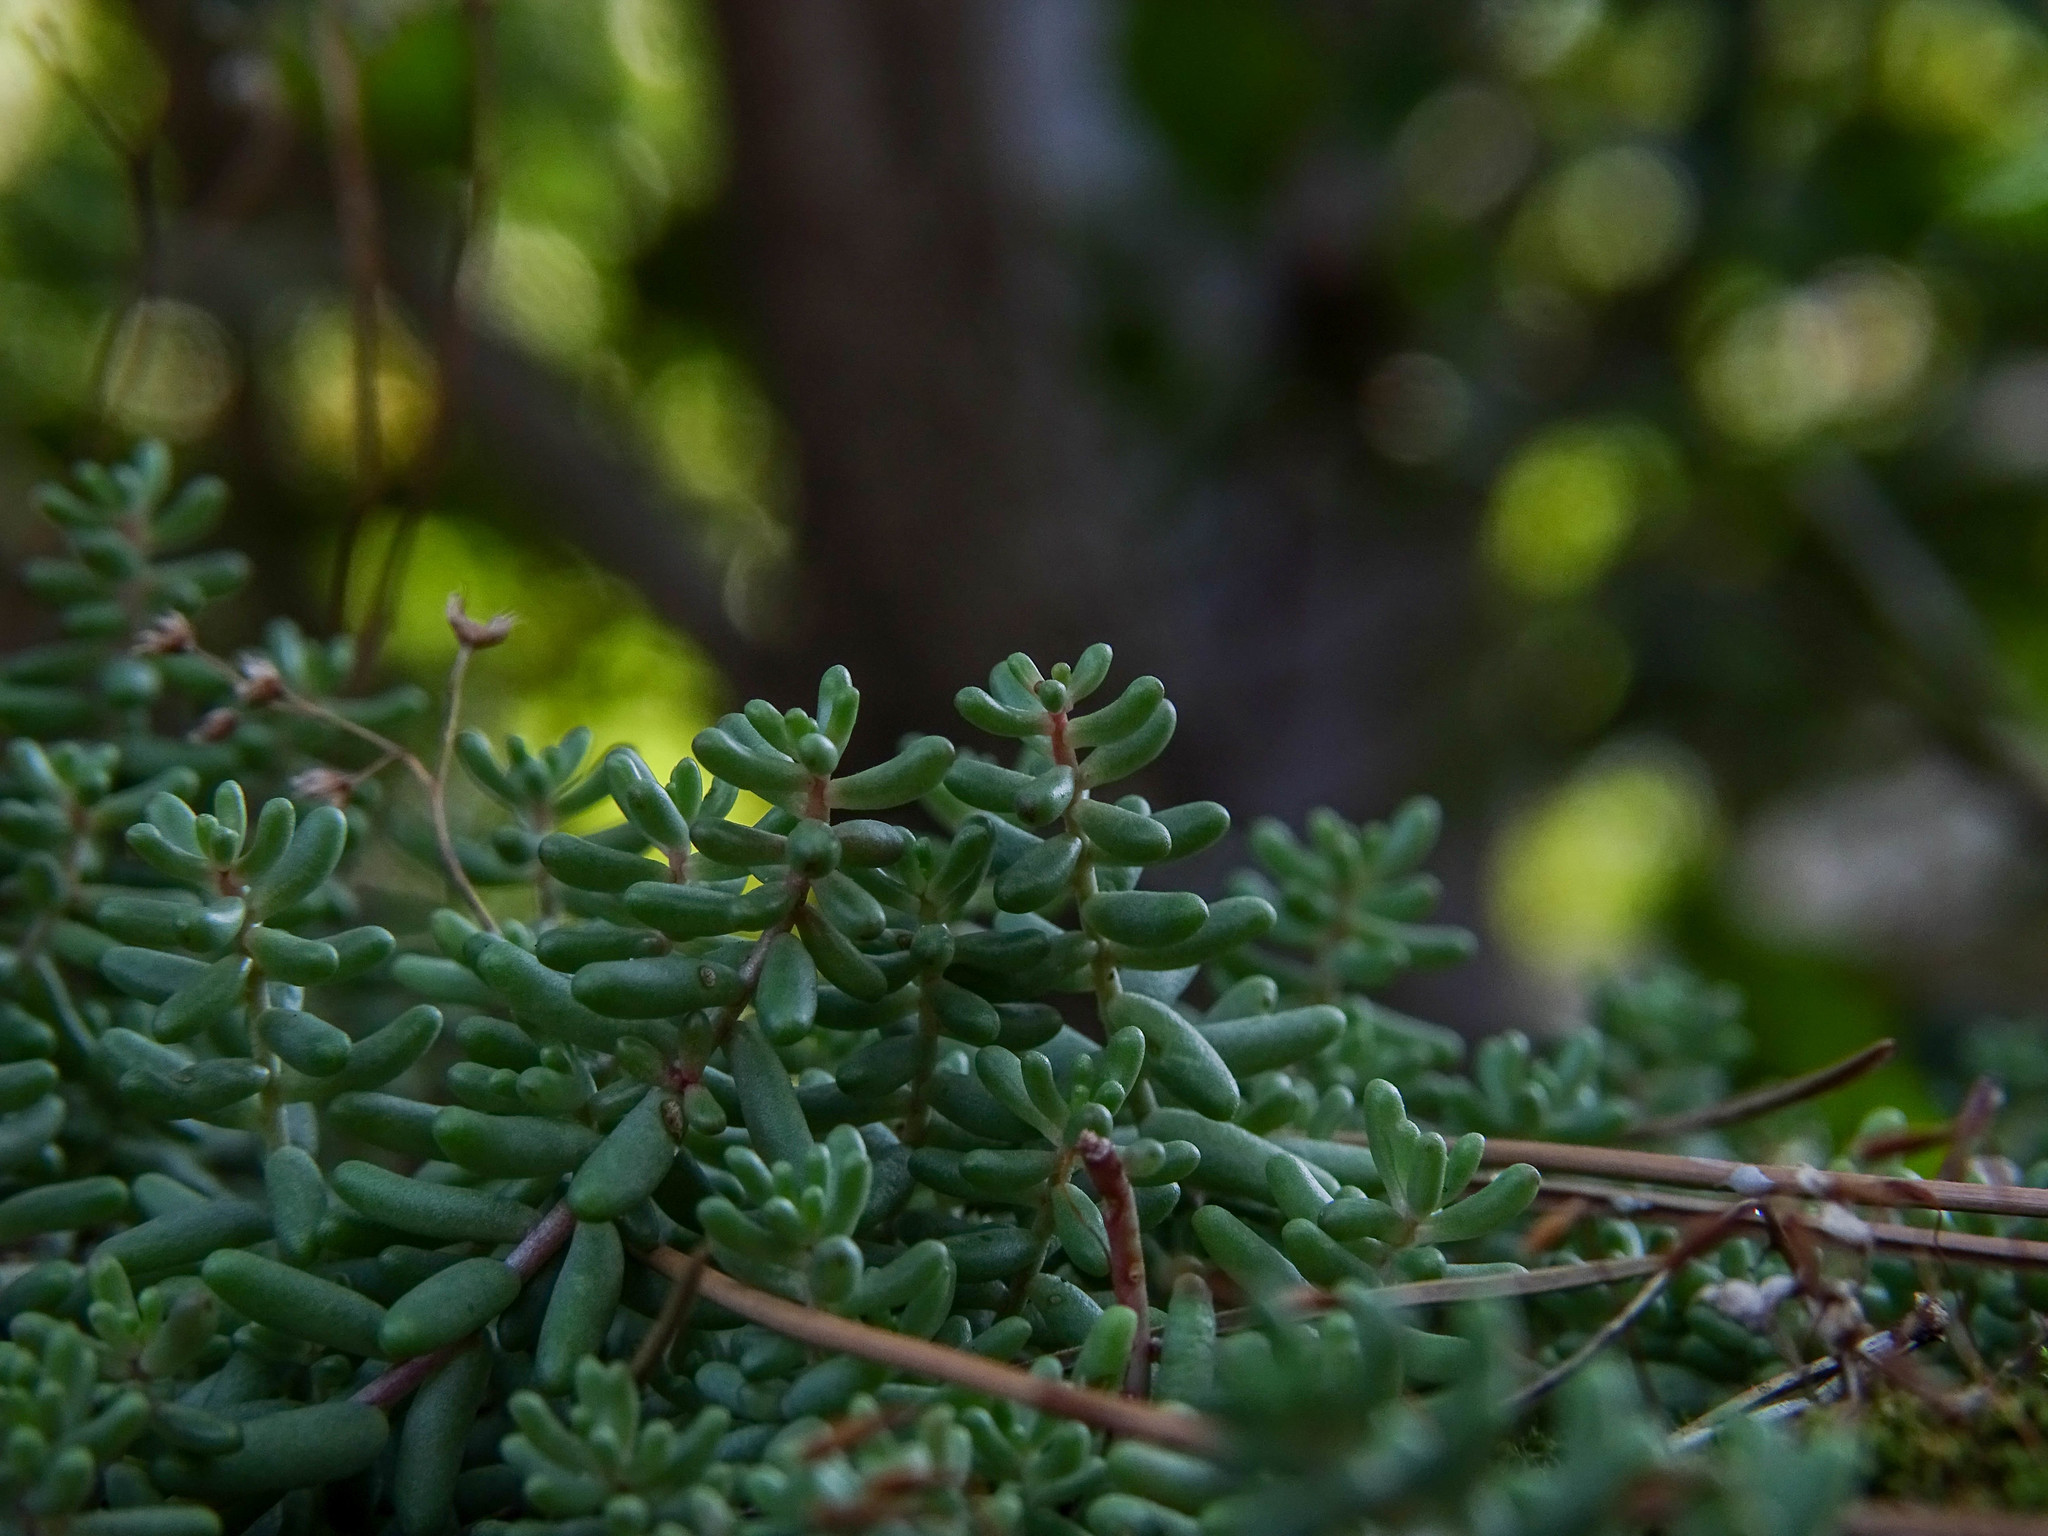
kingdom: Plantae
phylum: Tracheophyta
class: Magnoliopsida
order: Saxifragales
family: Crassulaceae
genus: Sedum
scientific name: Sedum album
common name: White stonecrop
